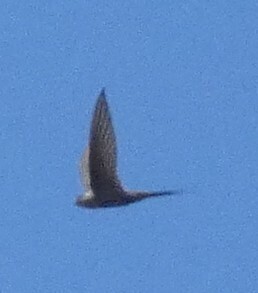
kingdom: Animalia
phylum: Chordata
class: Aves
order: Apodiformes
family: Apodidae
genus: Cypsiurus
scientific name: Cypsiurus parvus
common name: African palm swift
